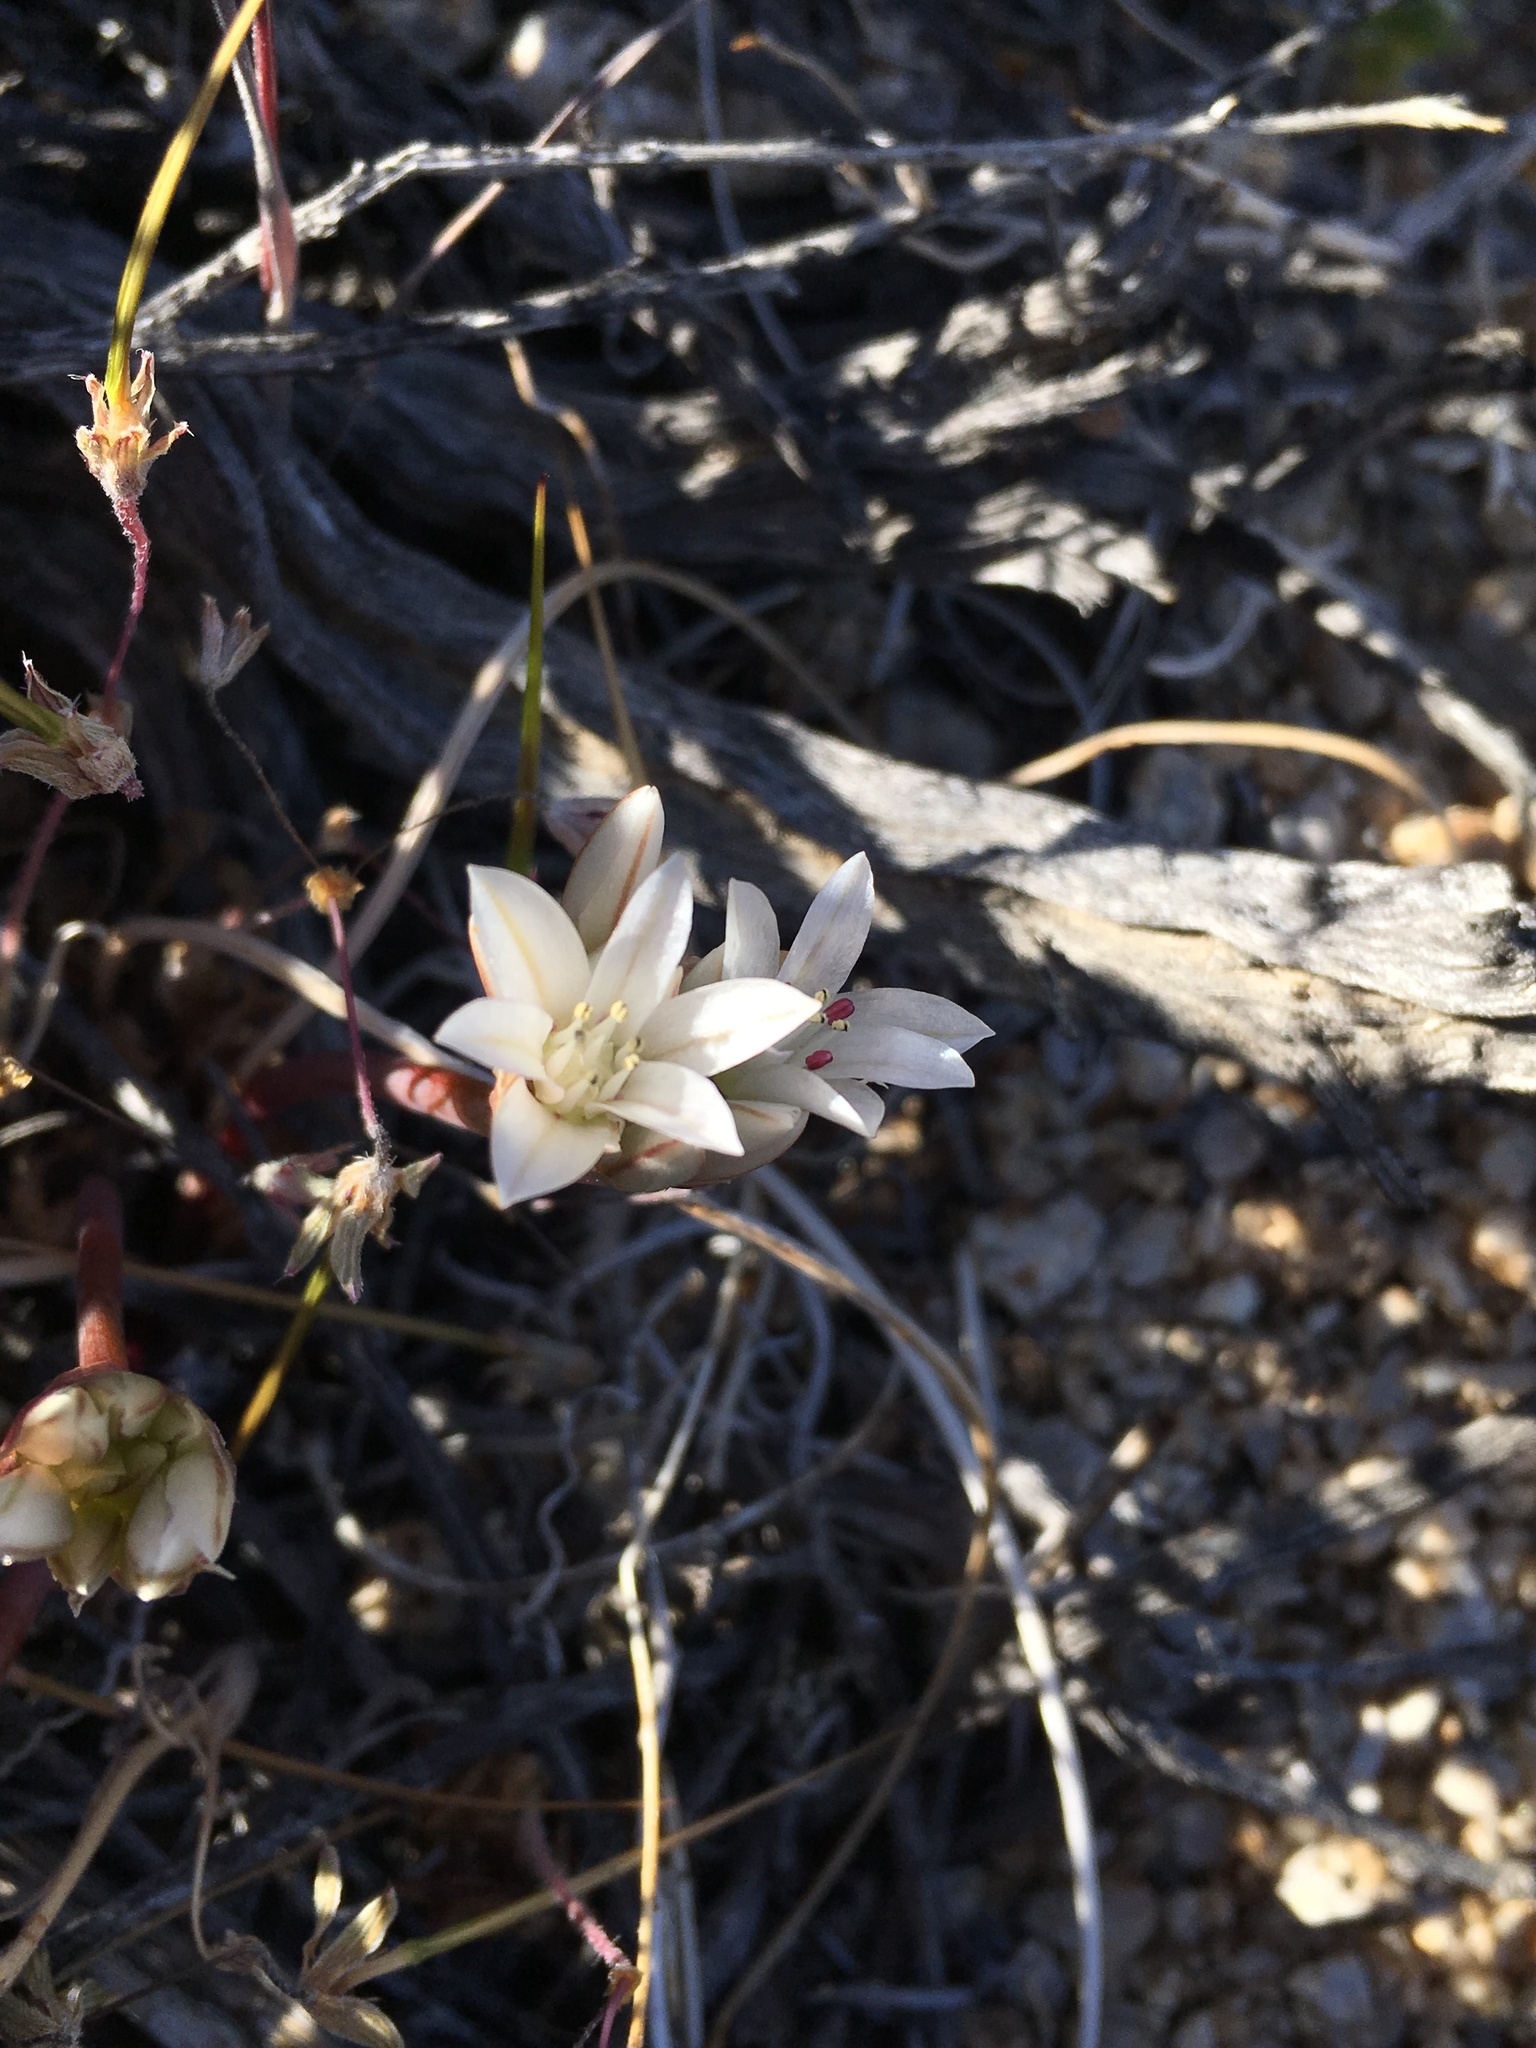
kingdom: Plantae
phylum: Tracheophyta
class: Liliopsida
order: Asparagales
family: Amaryllidaceae
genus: Allium
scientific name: Allium atrorubens
